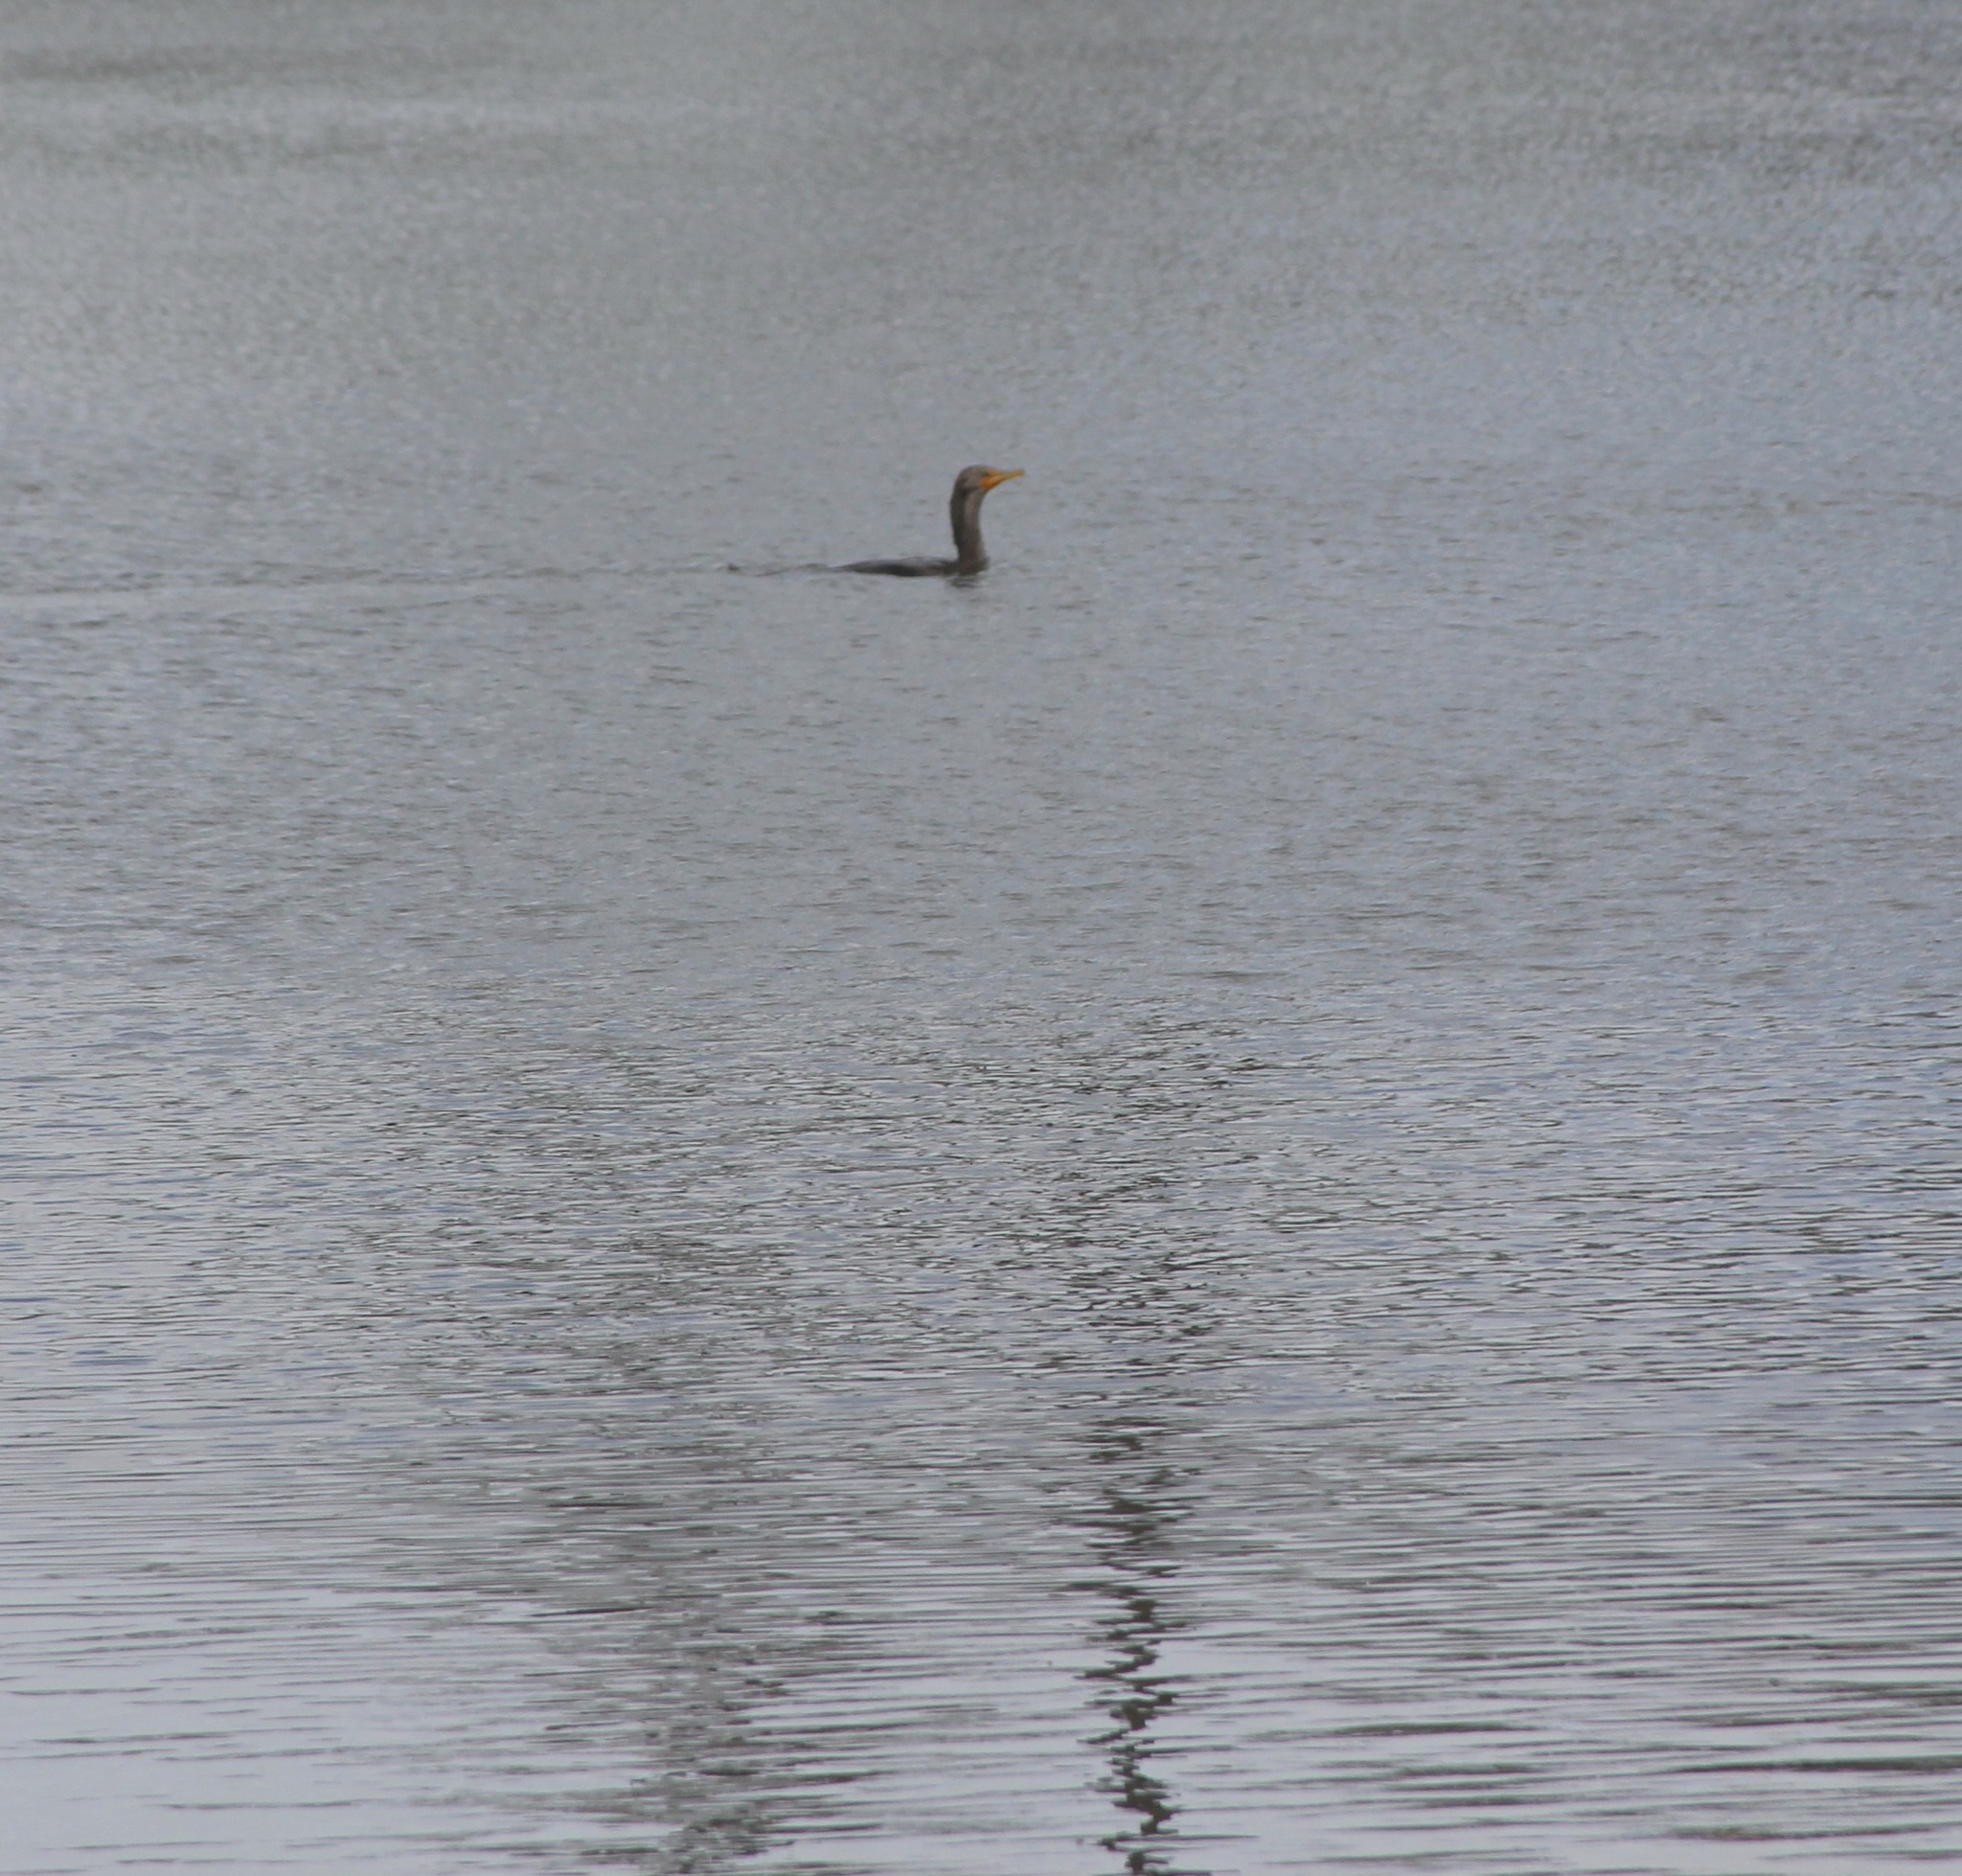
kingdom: Animalia
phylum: Chordata
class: Aves
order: Suliformes
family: Phalacrocoracidae
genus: Phalacrocorax
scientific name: Phalacrocorax auritus
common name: Double-crested cormorant
